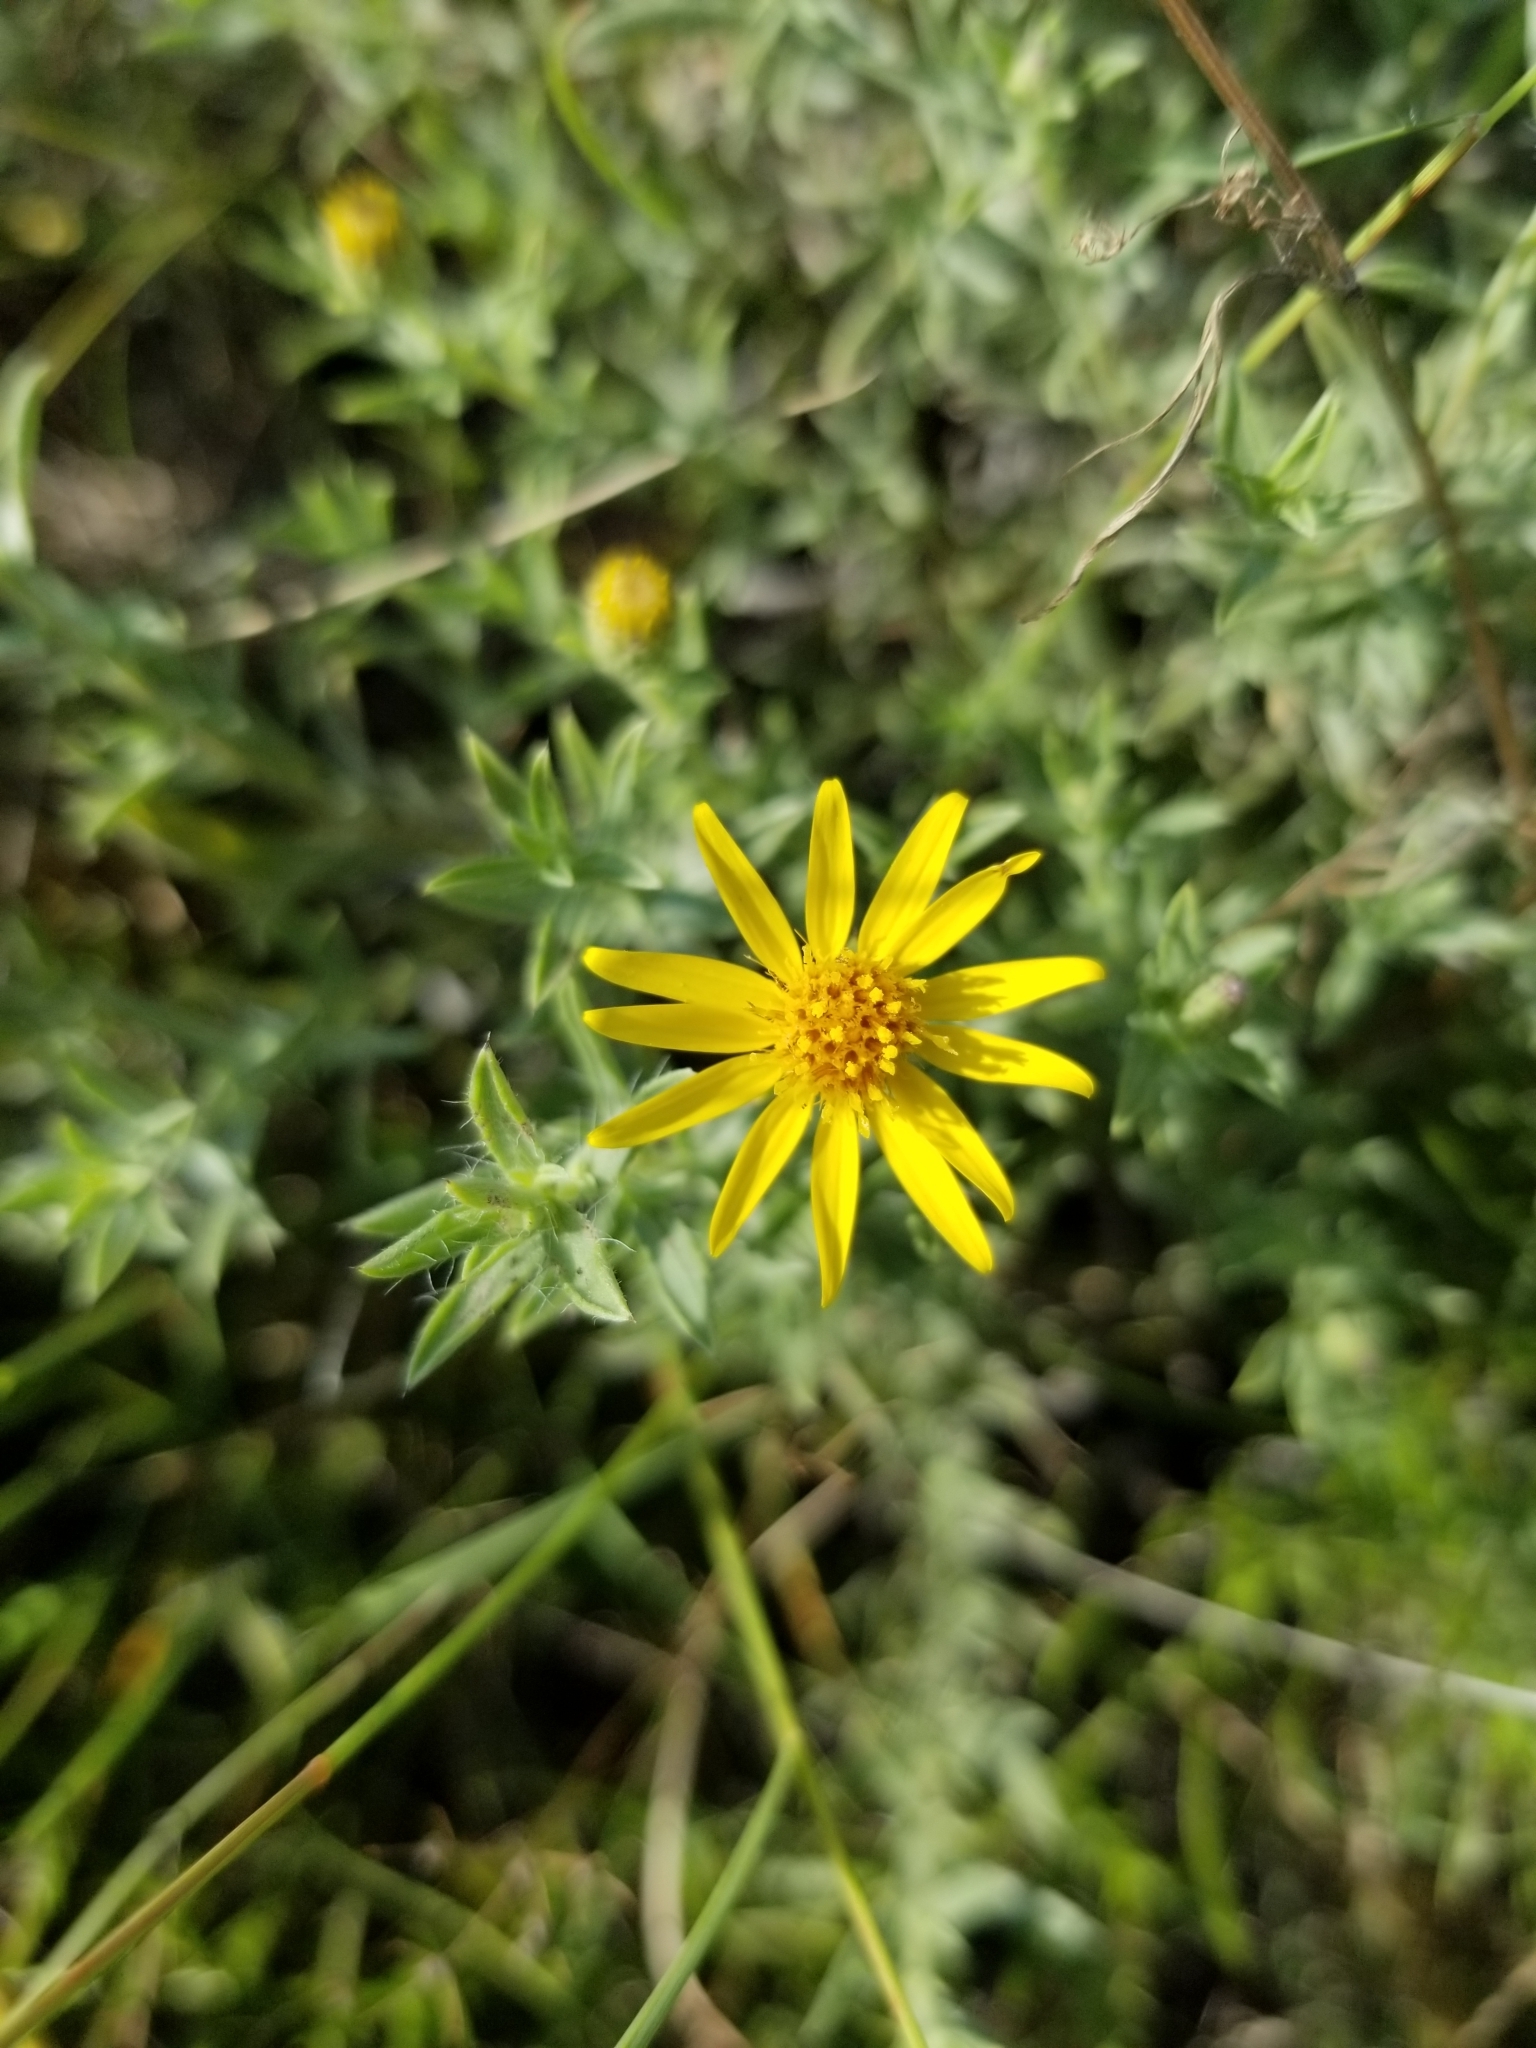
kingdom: Plantae
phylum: Tracheophyta
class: Magnoliopsida
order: Asterales
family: Asteraceae
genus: Heterotheca
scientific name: Heterotheca canescens
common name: Hoary golden-aster
